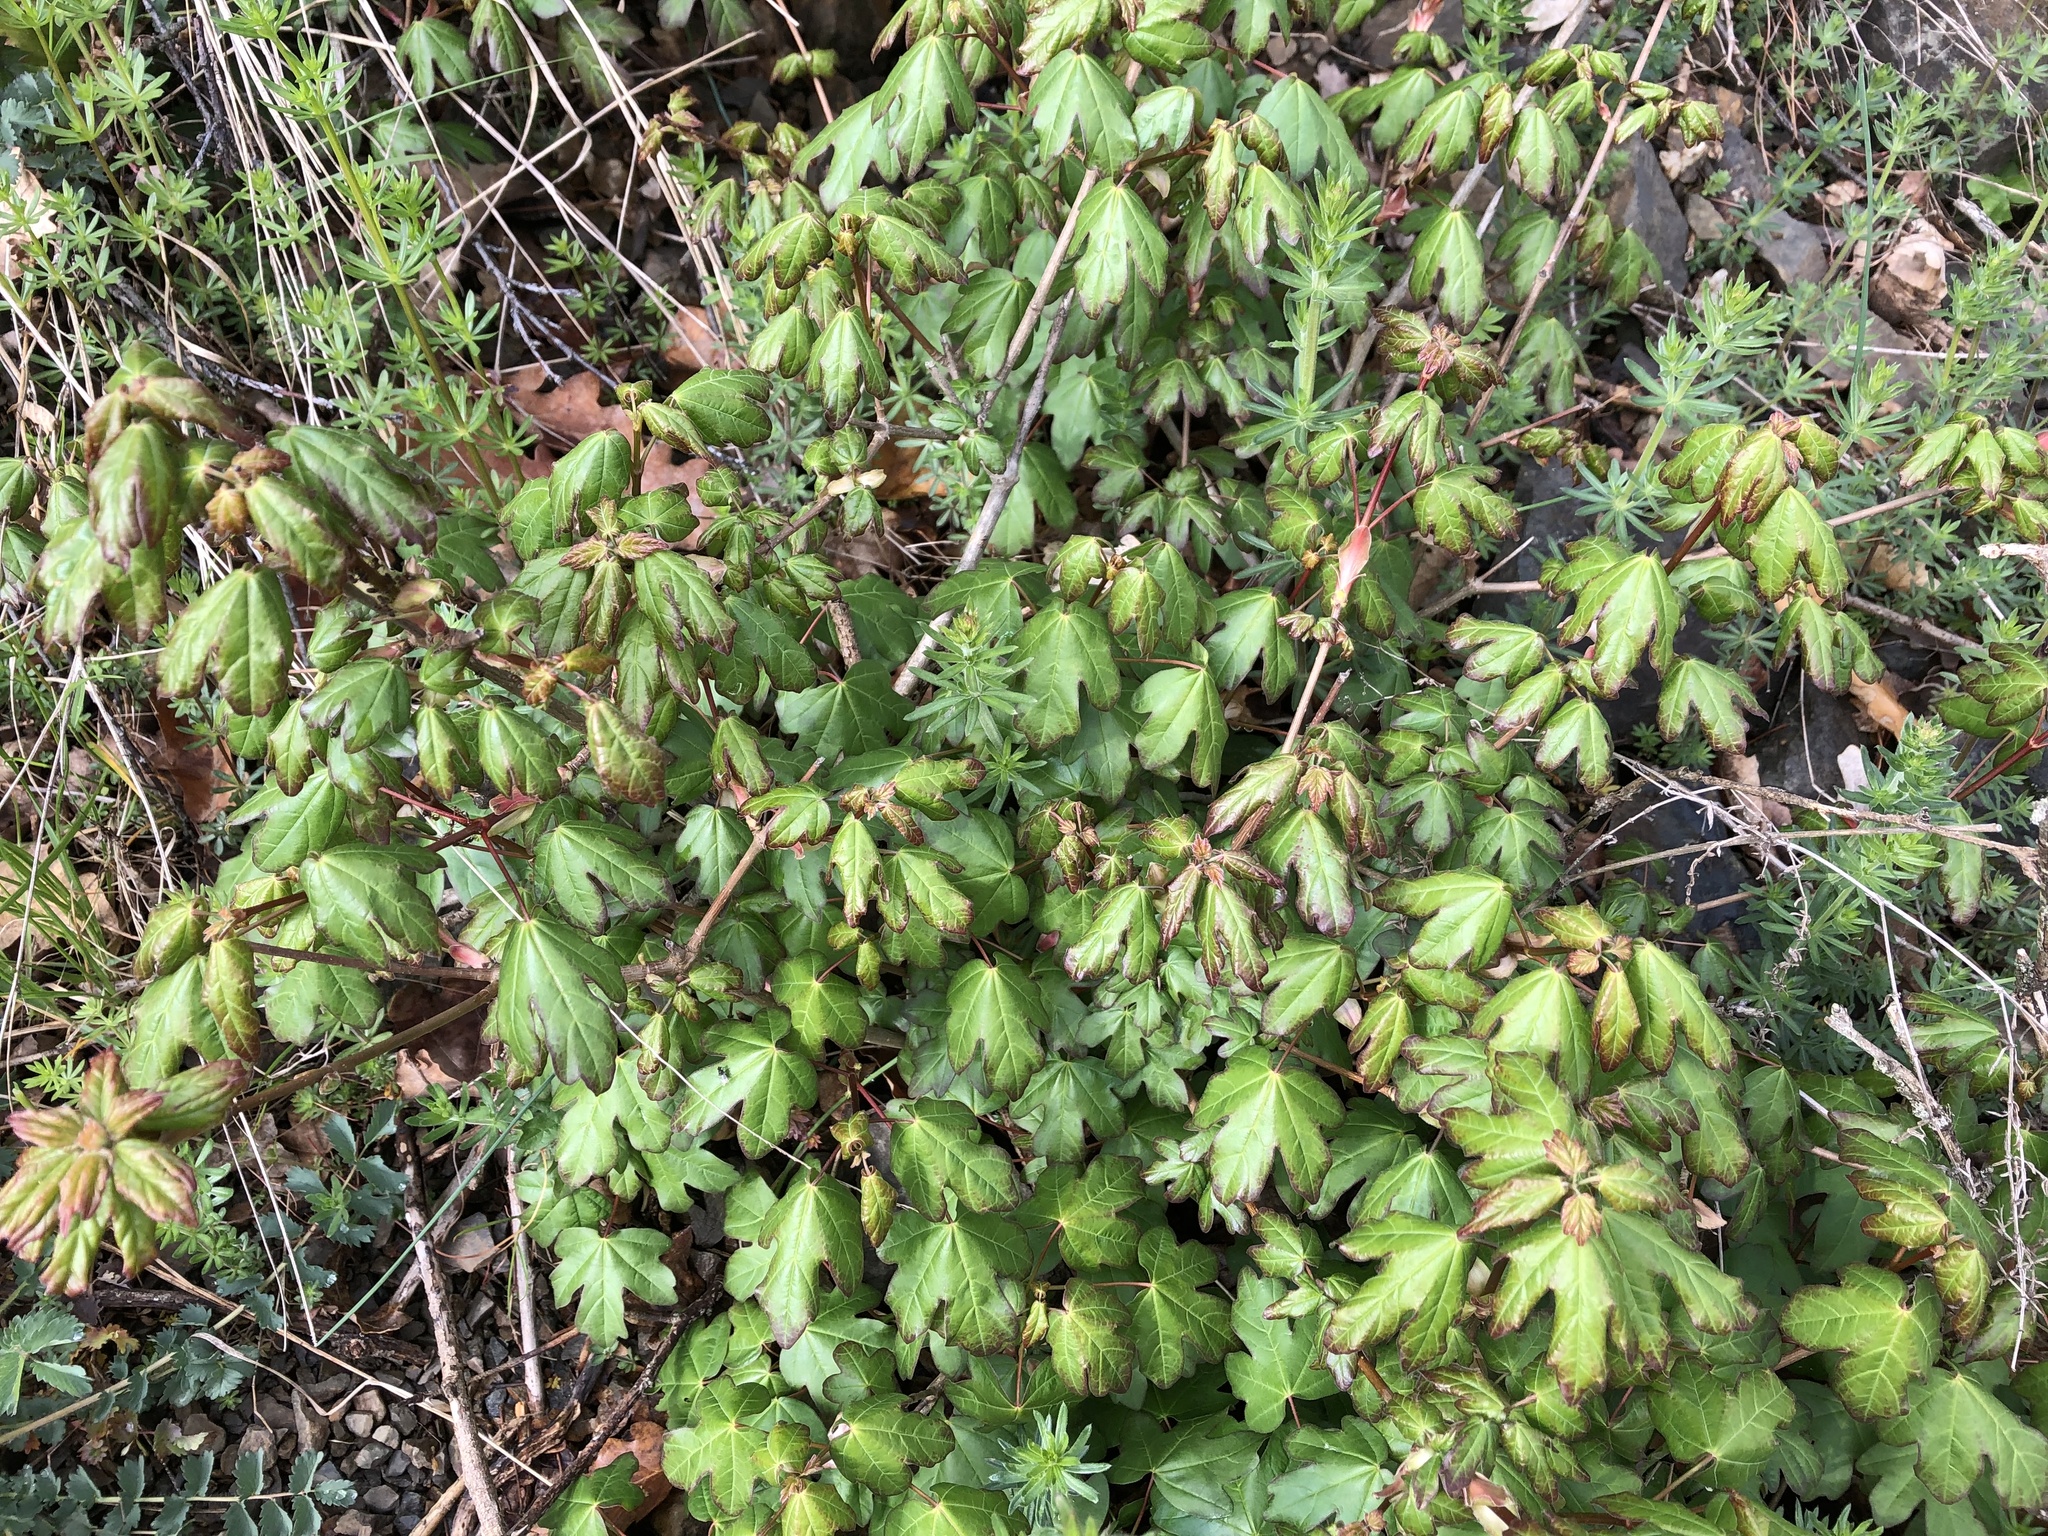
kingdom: Plantae
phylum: Tracheophyta
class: Magnoliopsida
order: Sapindales
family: Sapindaceae
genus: Acer
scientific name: Acer campestre
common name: Field maple
